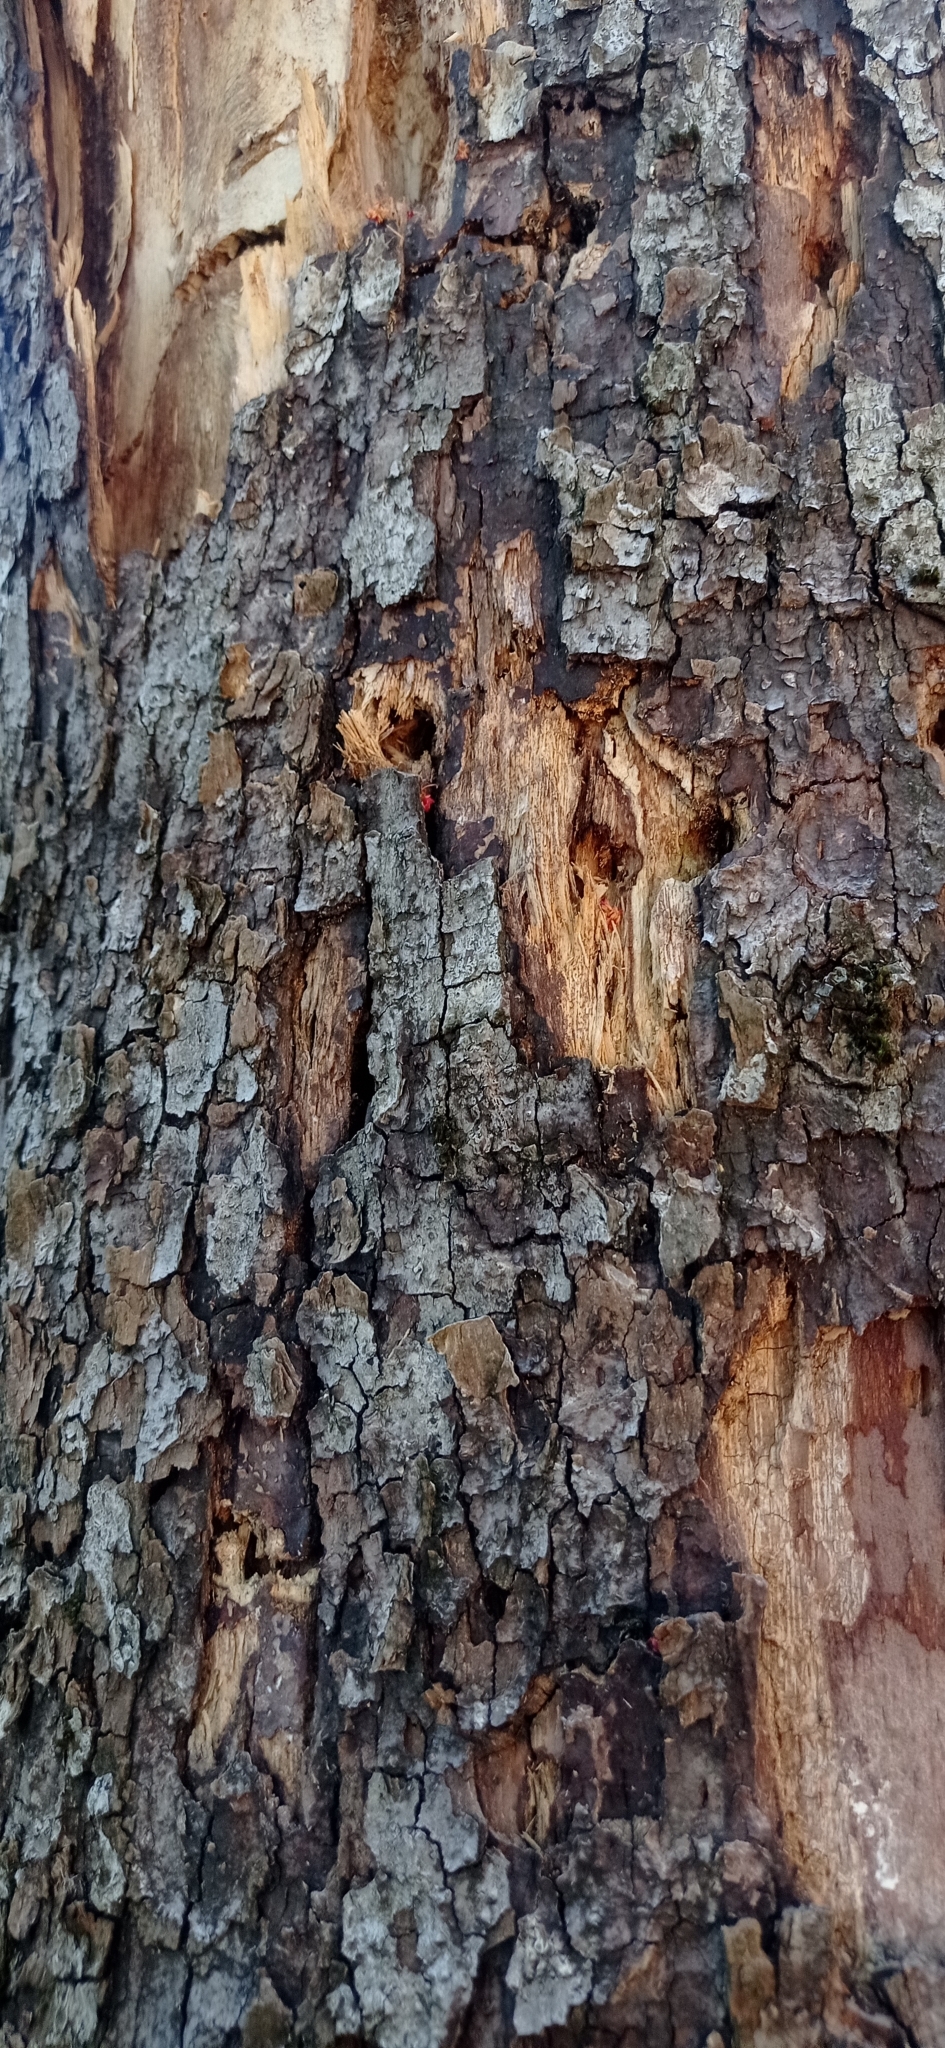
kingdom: Animalia
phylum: Chordata
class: Aves
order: Piciformes
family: Picidae
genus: Campephilus
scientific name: Campephilus magellanicus
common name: Magellanic woodpecker
